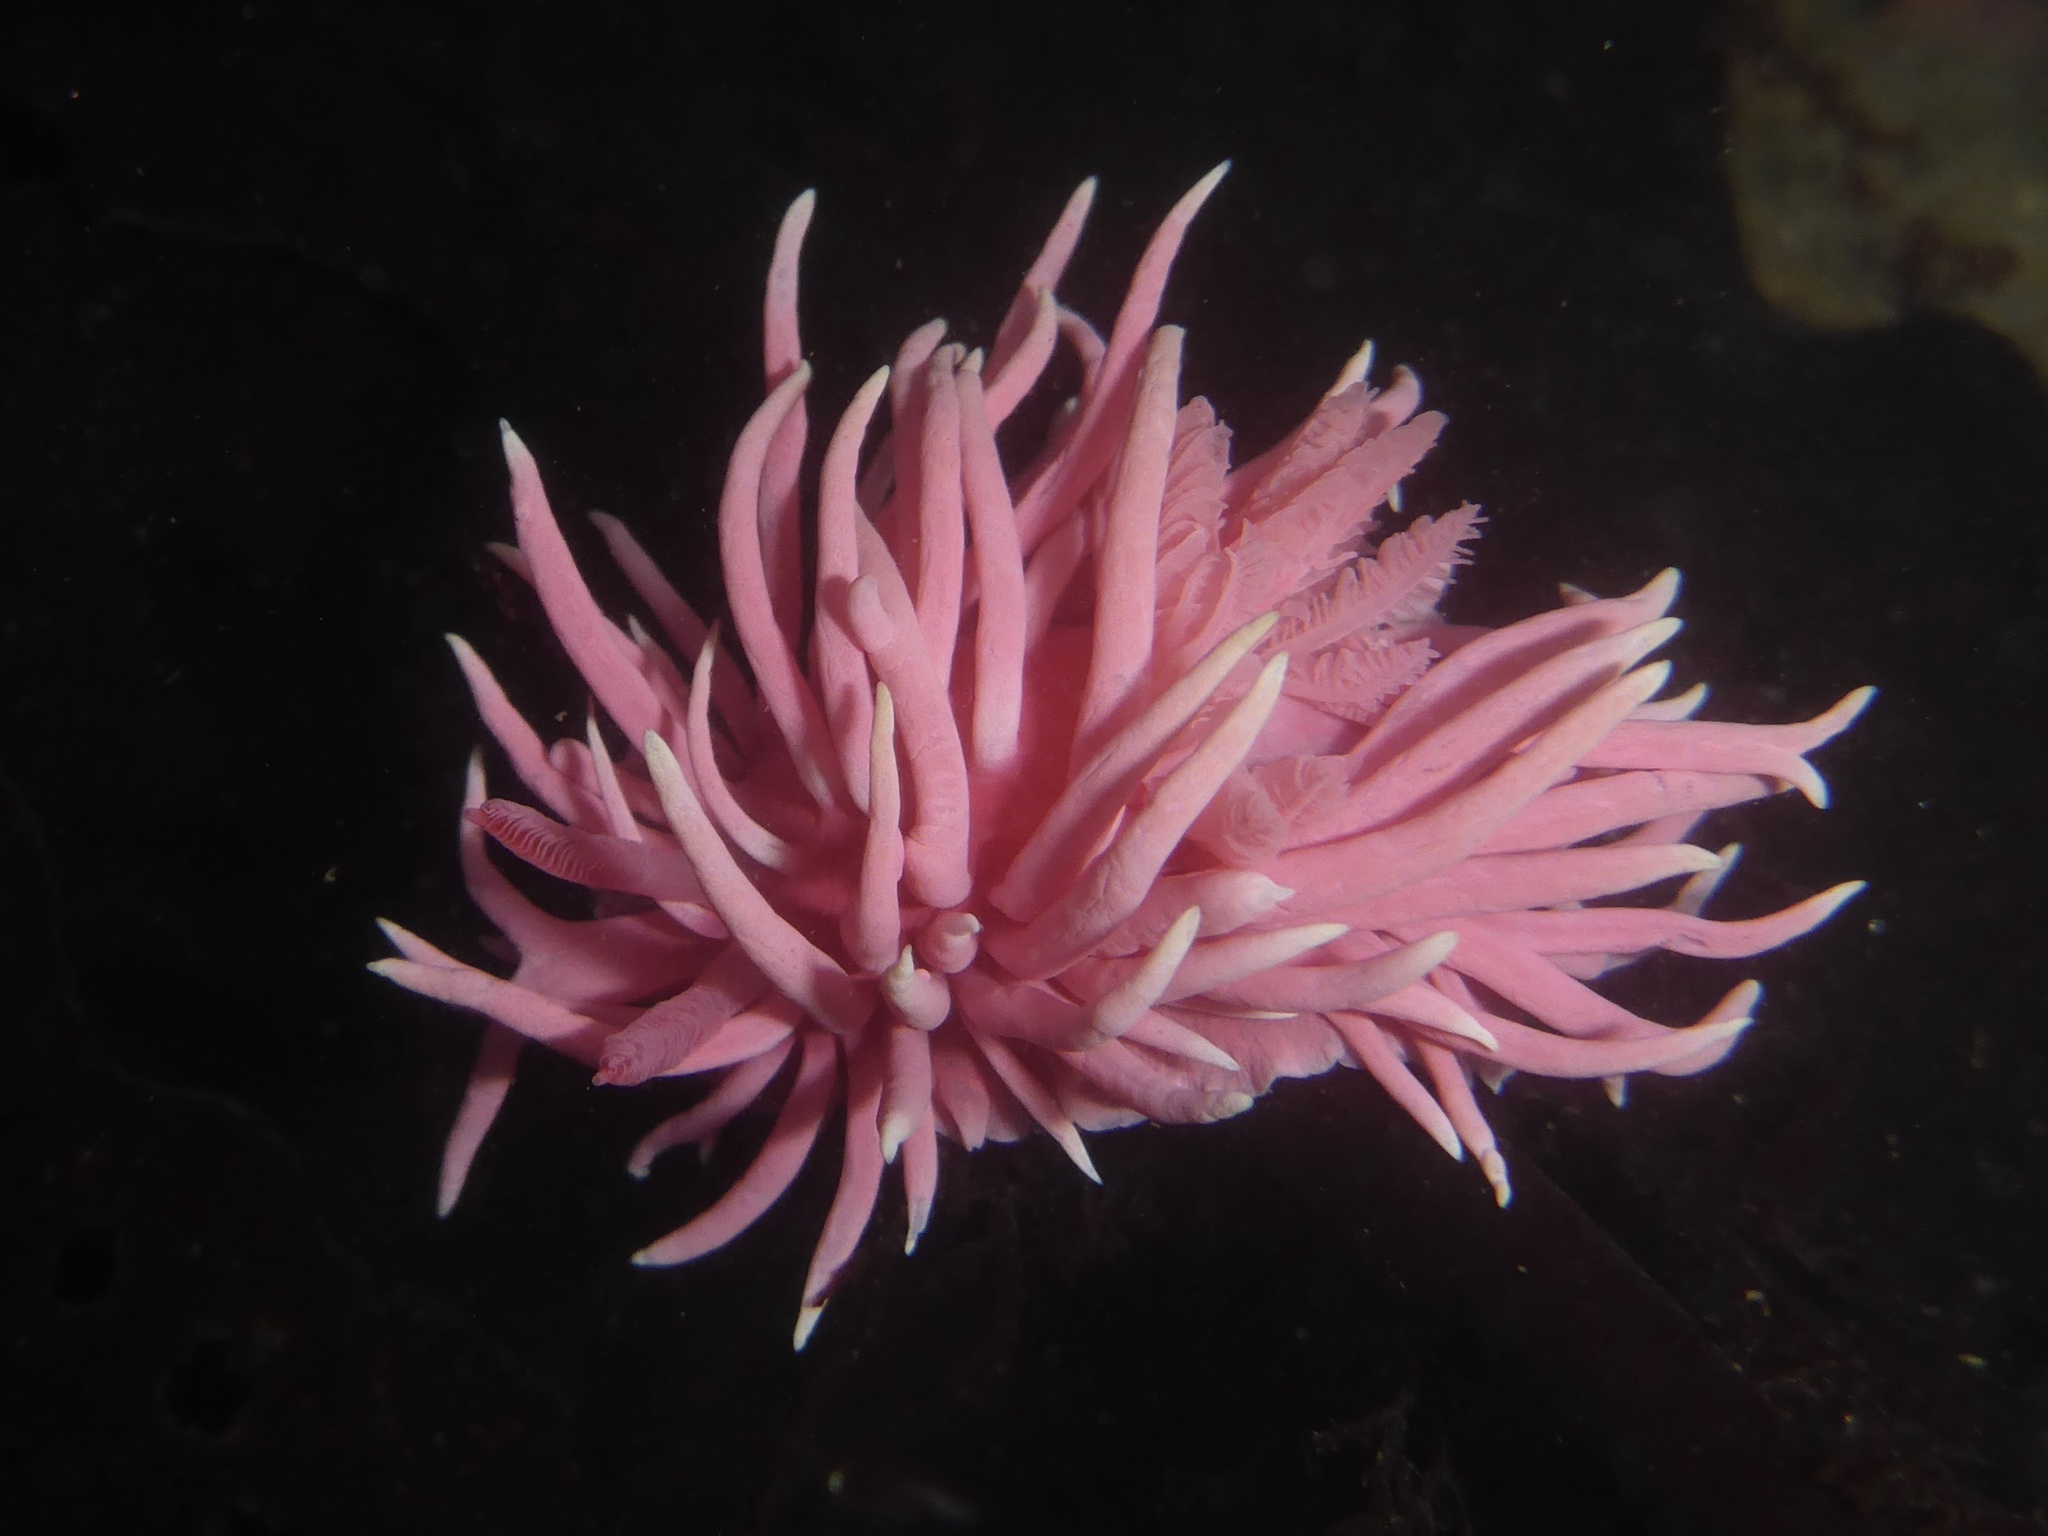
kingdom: Animalia
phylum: Mollusca
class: Gastropoda
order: Nudibranchia
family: Goniodorididae
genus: Okenia
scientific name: Okenia
